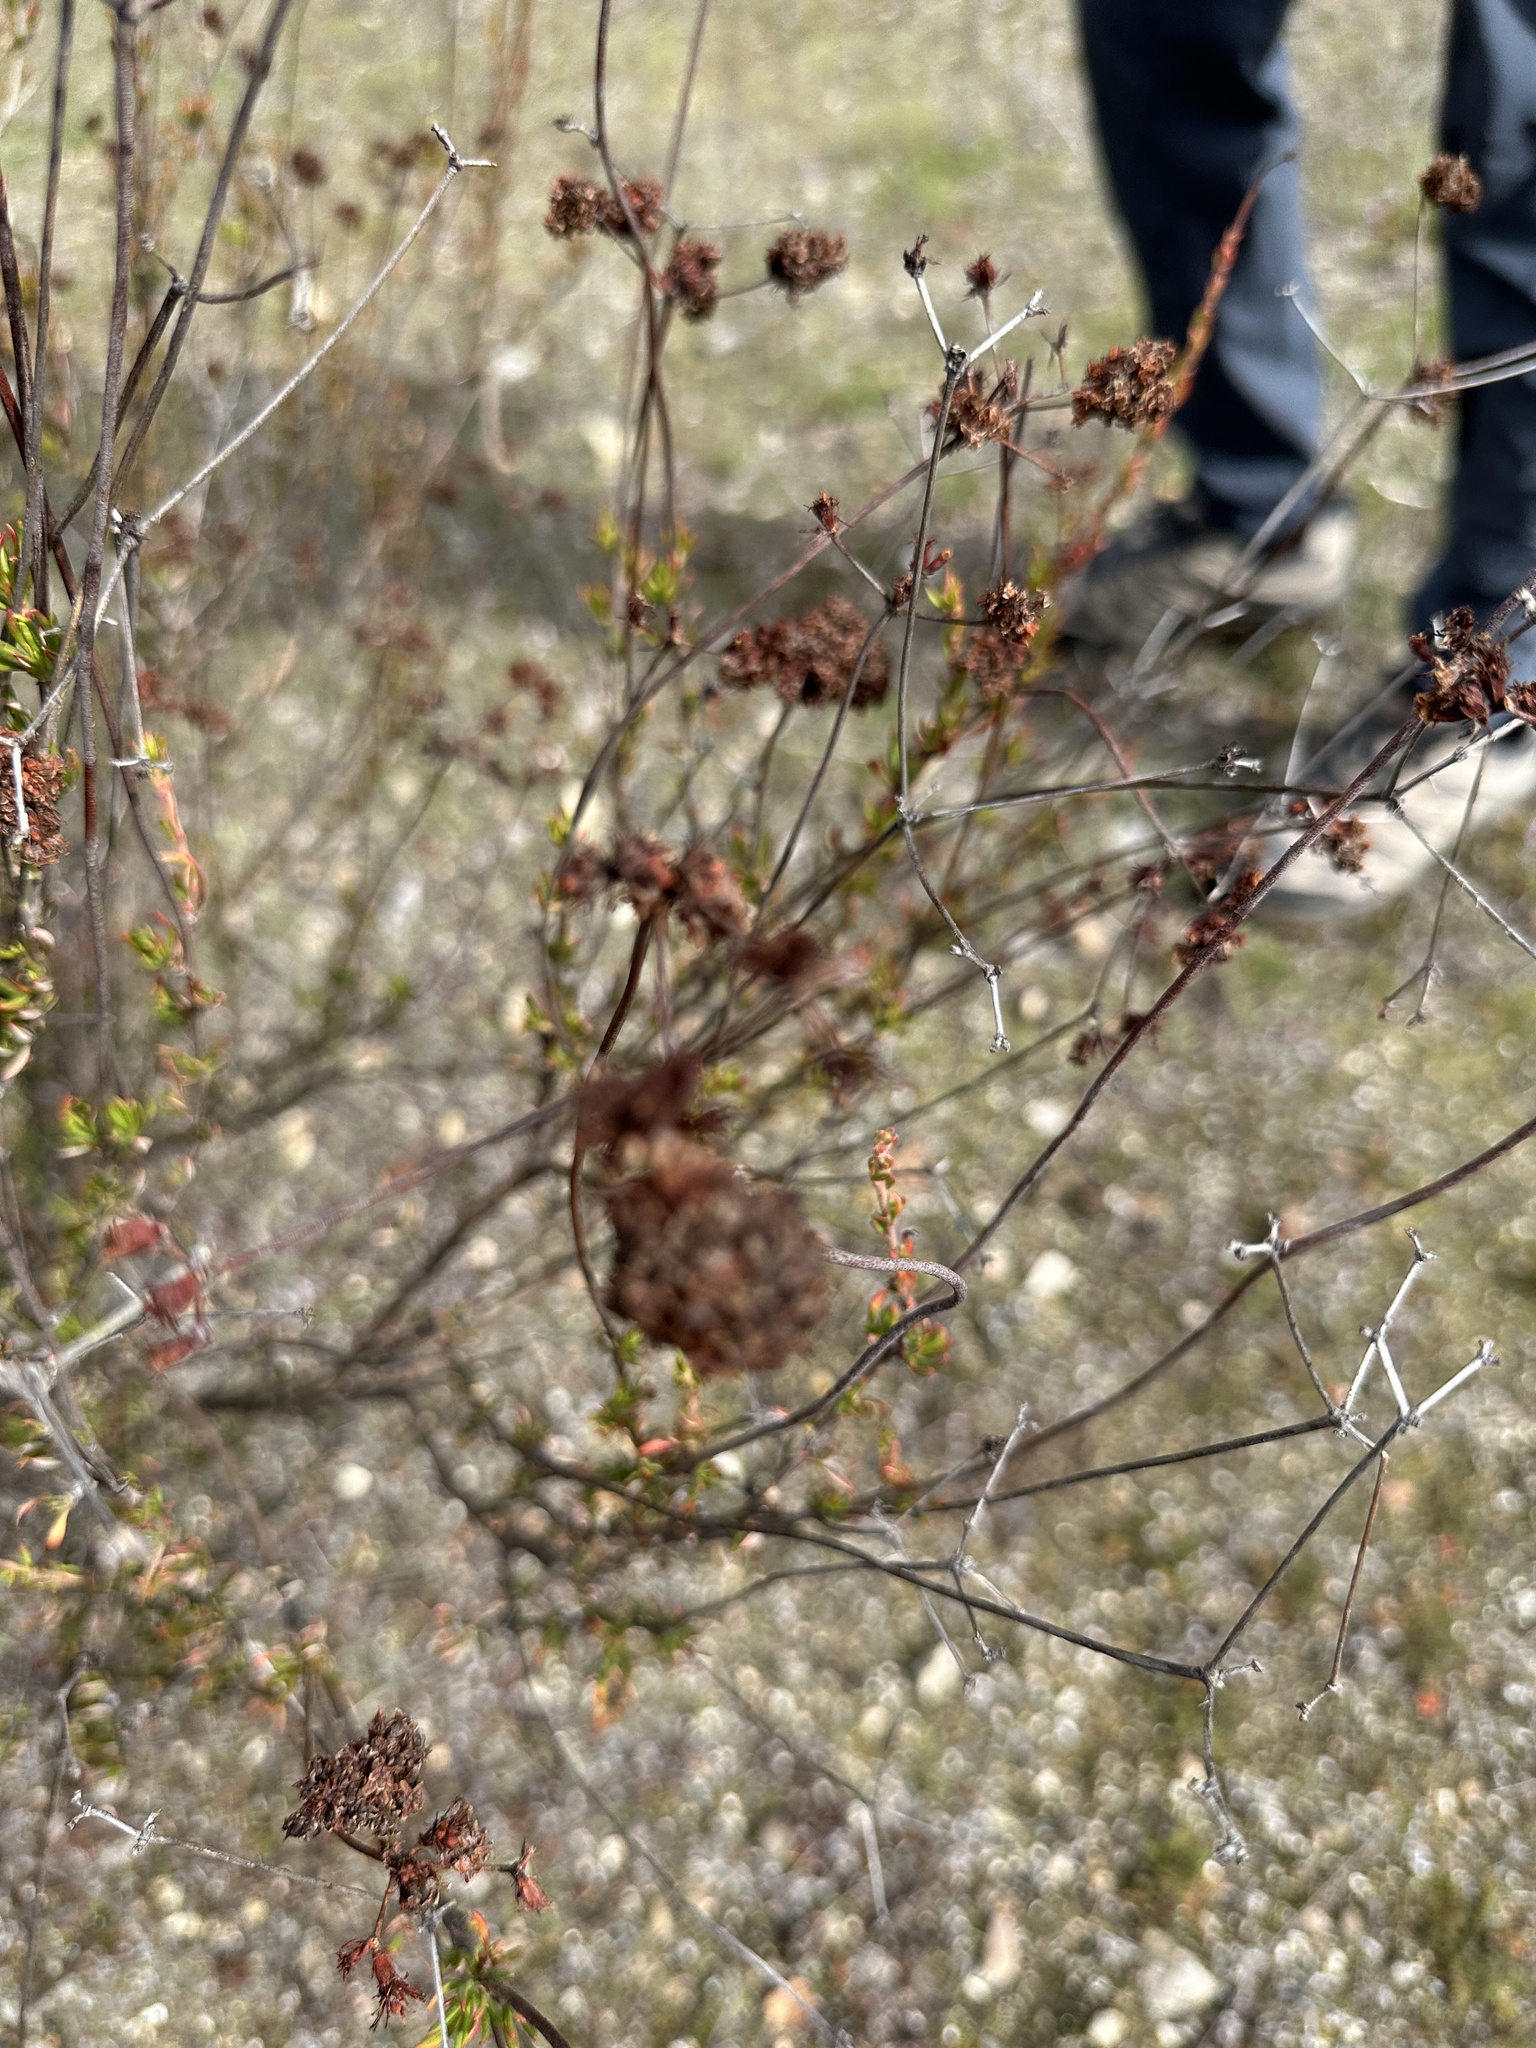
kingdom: Plantae
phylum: Tracheophyta
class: Magnoliopsida
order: Caryophyllales
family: Polygonaceae
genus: Eriogonum
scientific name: Eriogonum fasciculatum
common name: California wild buckwheat
